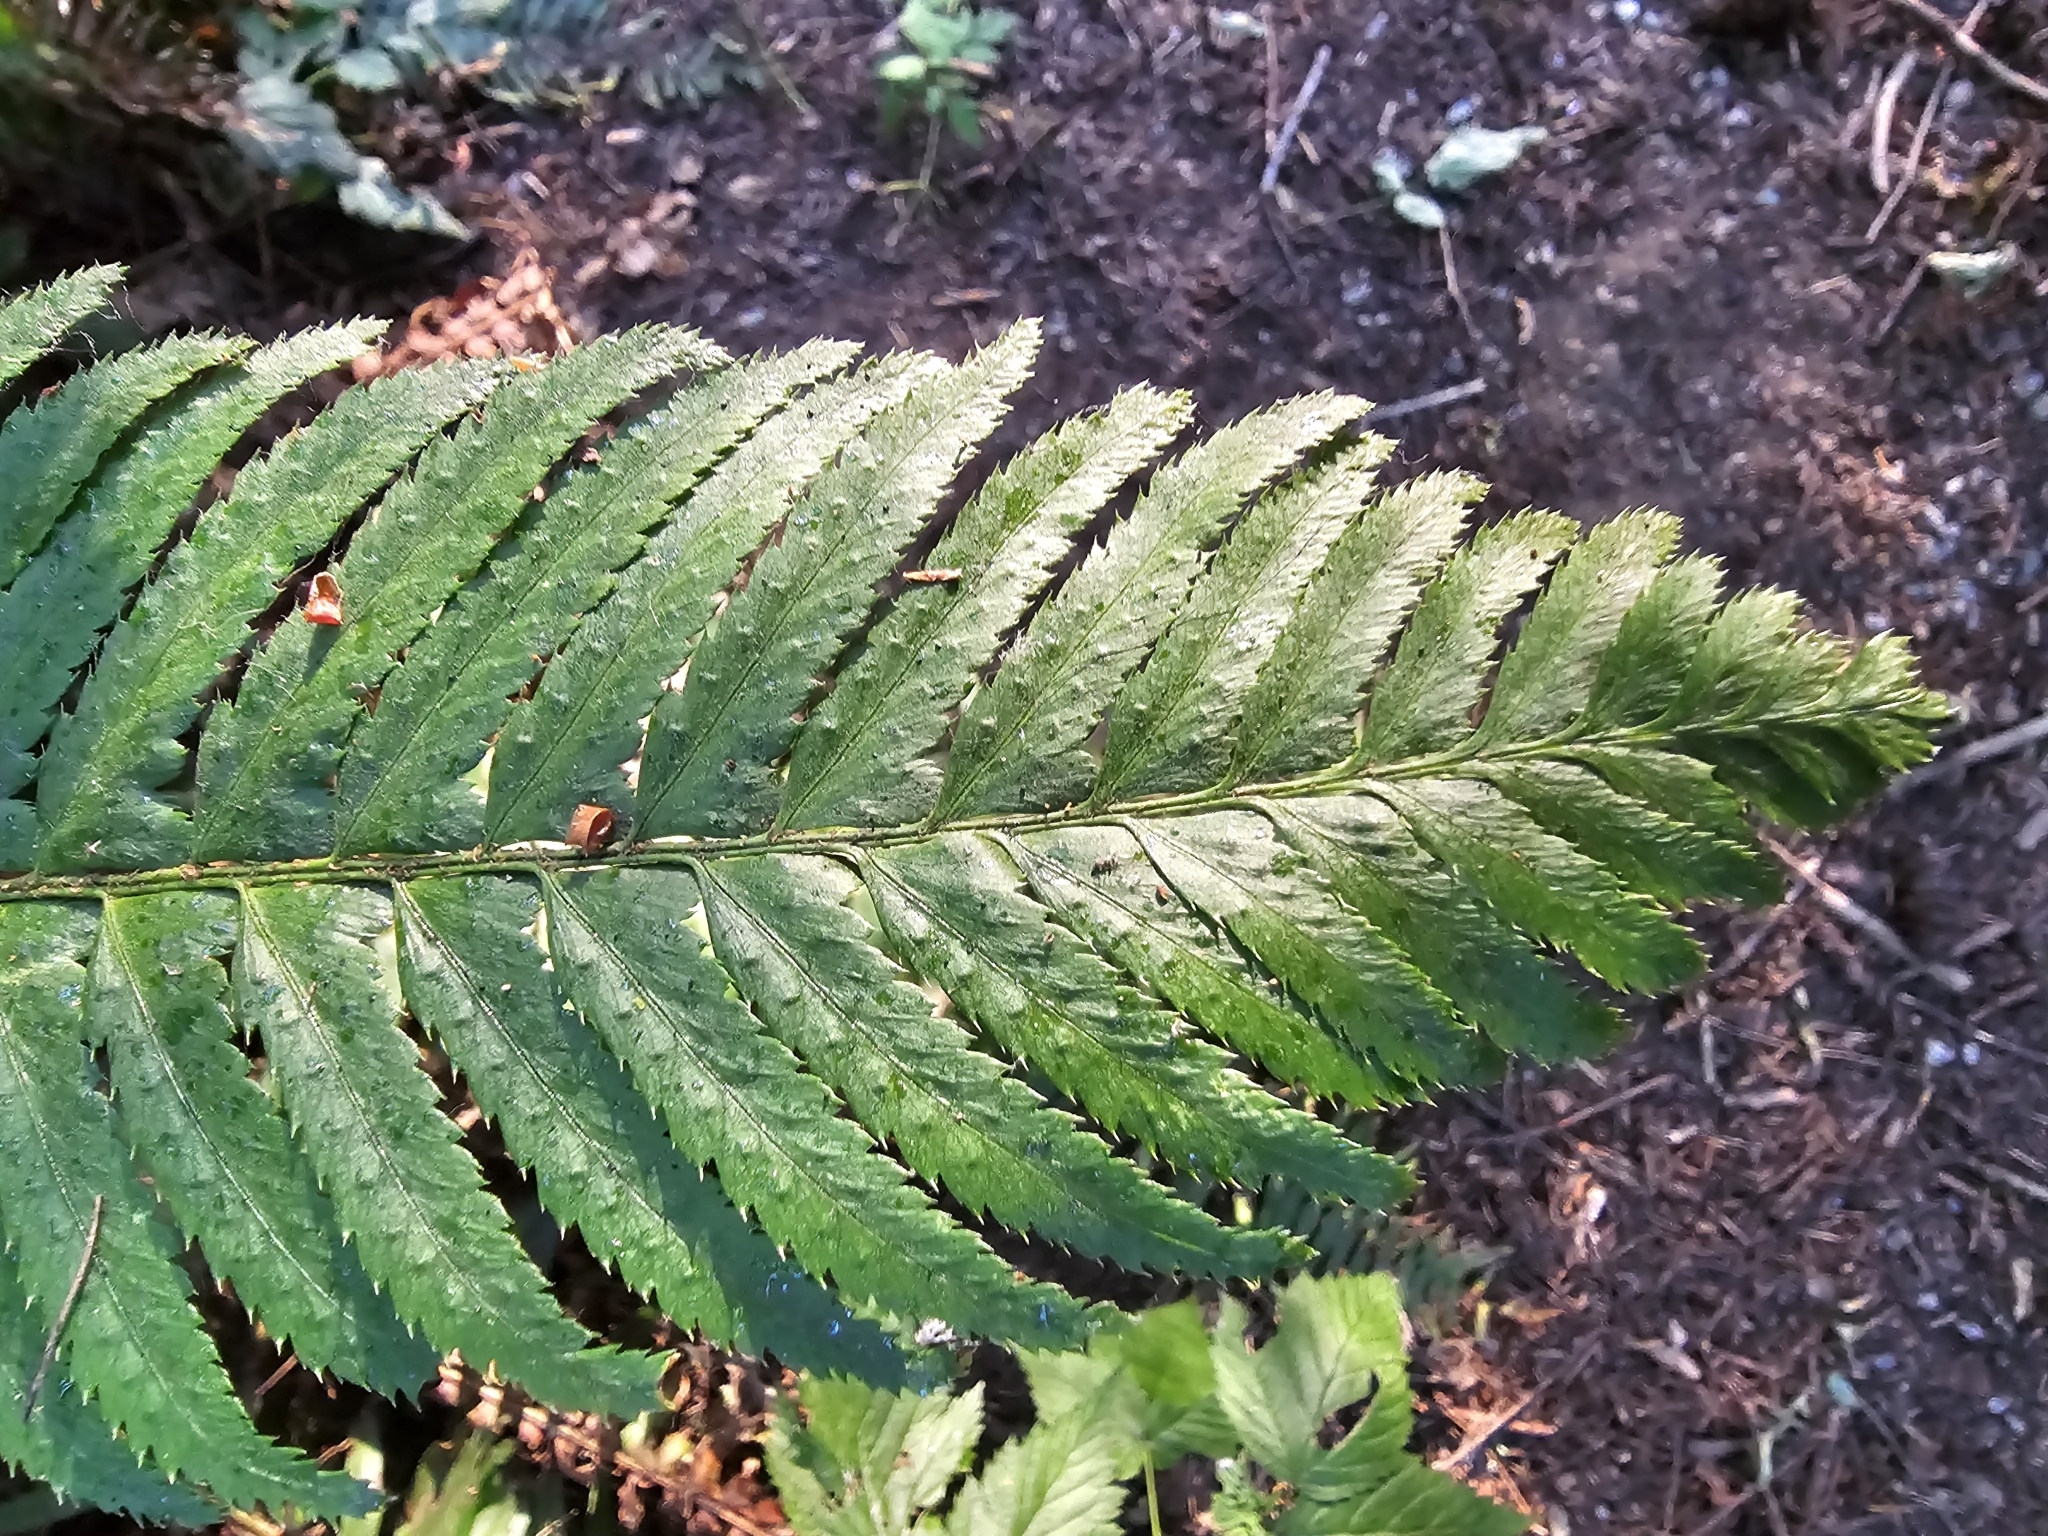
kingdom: Plantae
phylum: Tracheophyta
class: Polypodiopsida
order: Polypodiales
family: Dryopteridaceae
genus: Polystichum
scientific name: Polystichum munitum
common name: Western sword-fern
